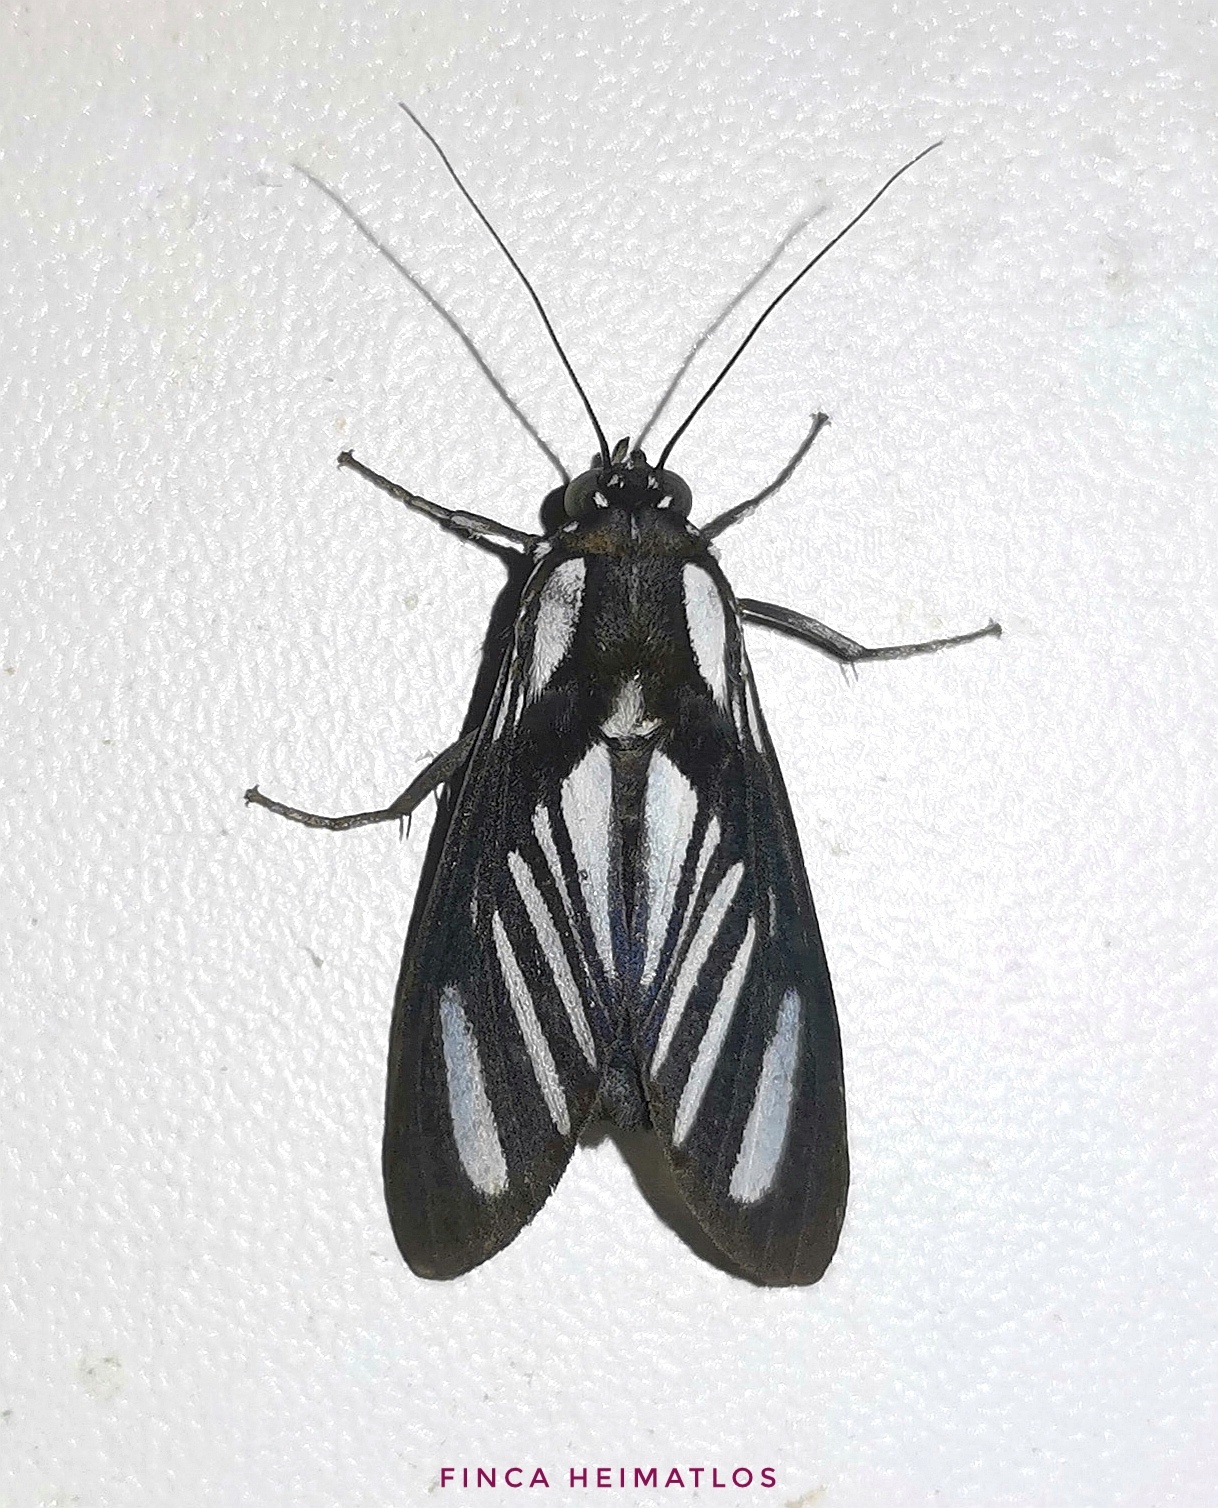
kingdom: Animalia
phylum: Arthropoda
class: Insecta
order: Lepidoptera
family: Erebidae
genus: Rhipha
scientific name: Rhipha strigosa
